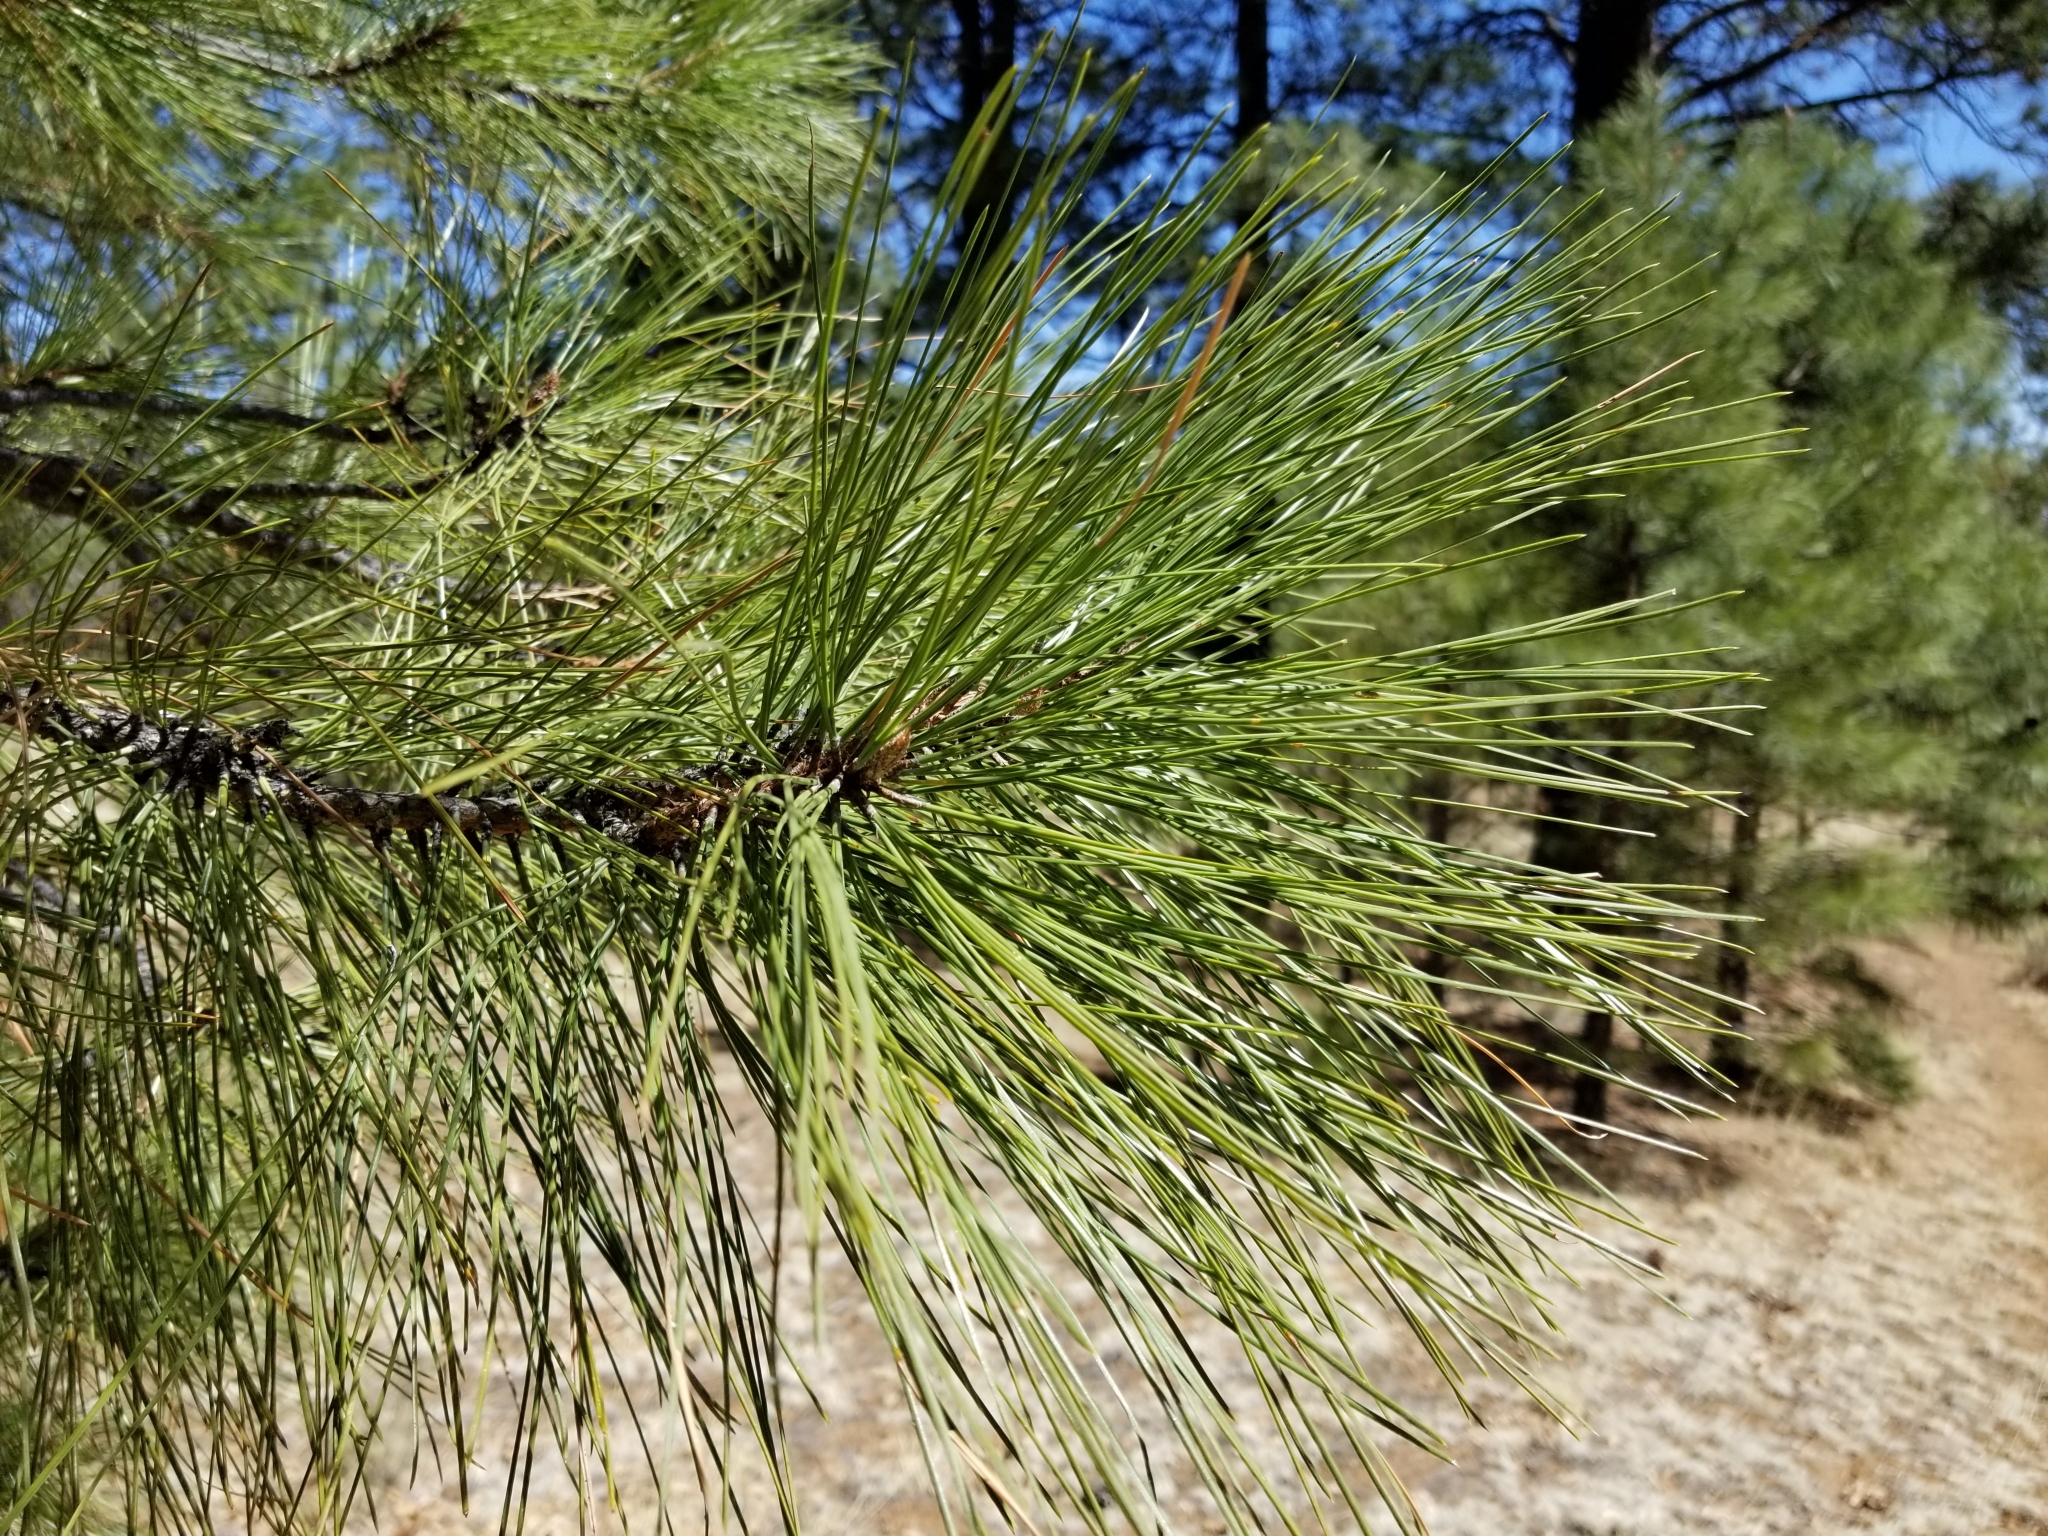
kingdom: Plantae
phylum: Tracheophyta
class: Pinopsida
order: Pinales
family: Pinaceae
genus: Pinus
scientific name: Pinus ponderosa
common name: Western yellow-pine
